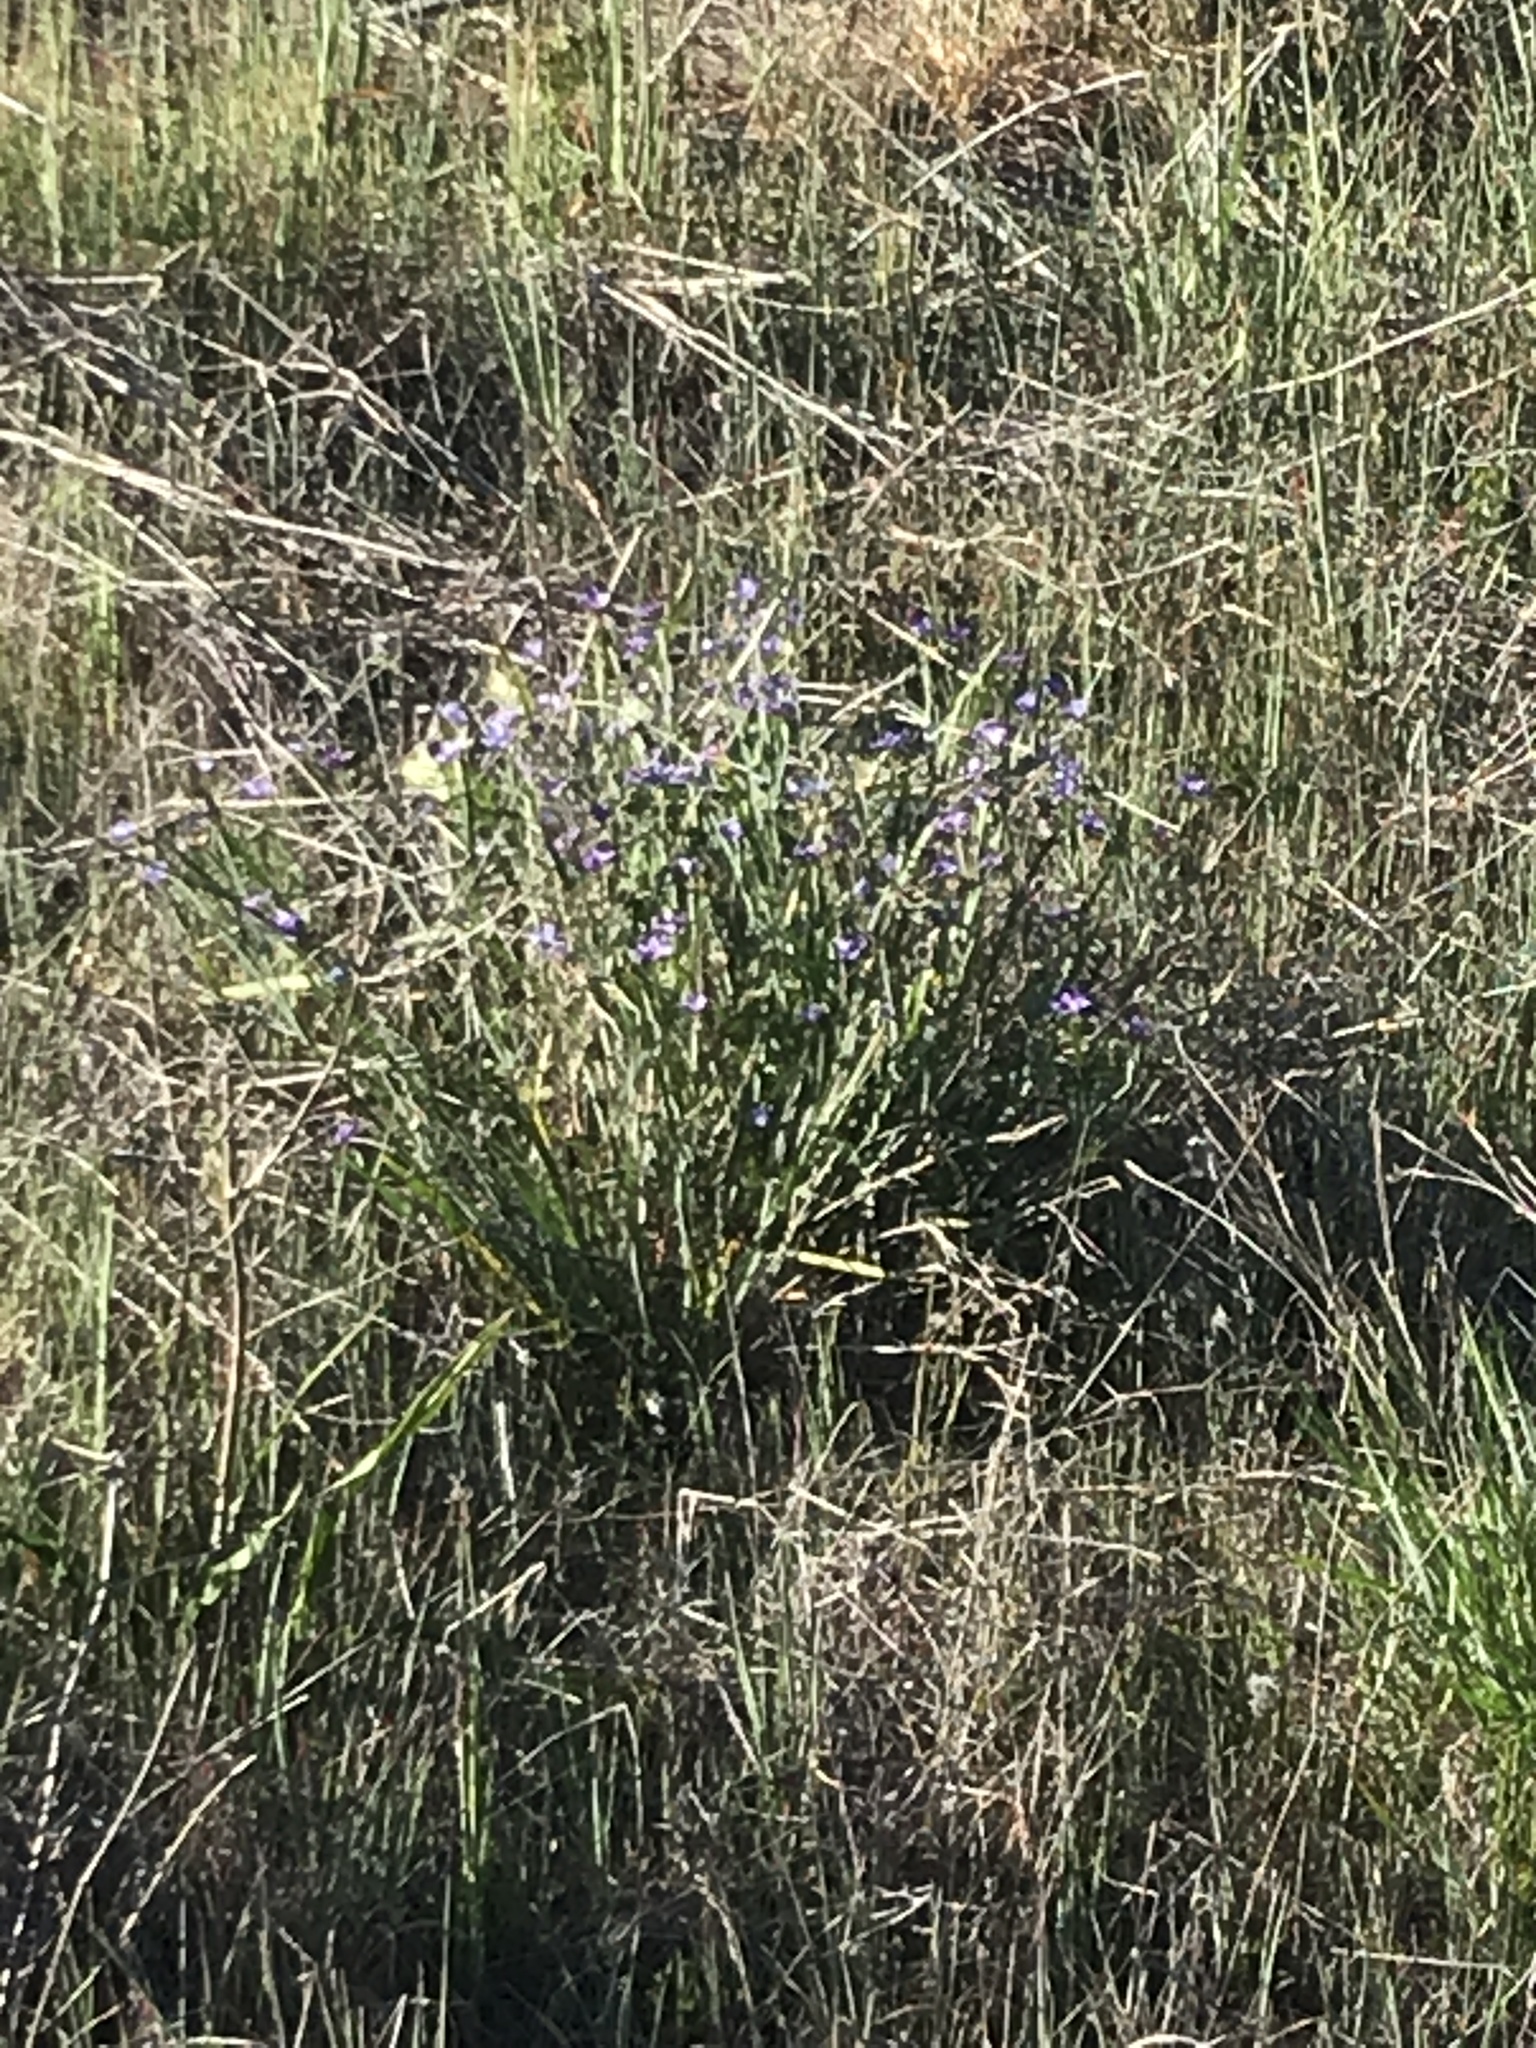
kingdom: Plantae
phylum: Tracheophyta
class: Liliopsida
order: Asparagales
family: Iridaceae
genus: Sisyrinchium
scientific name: Sisyrinchium bellum
